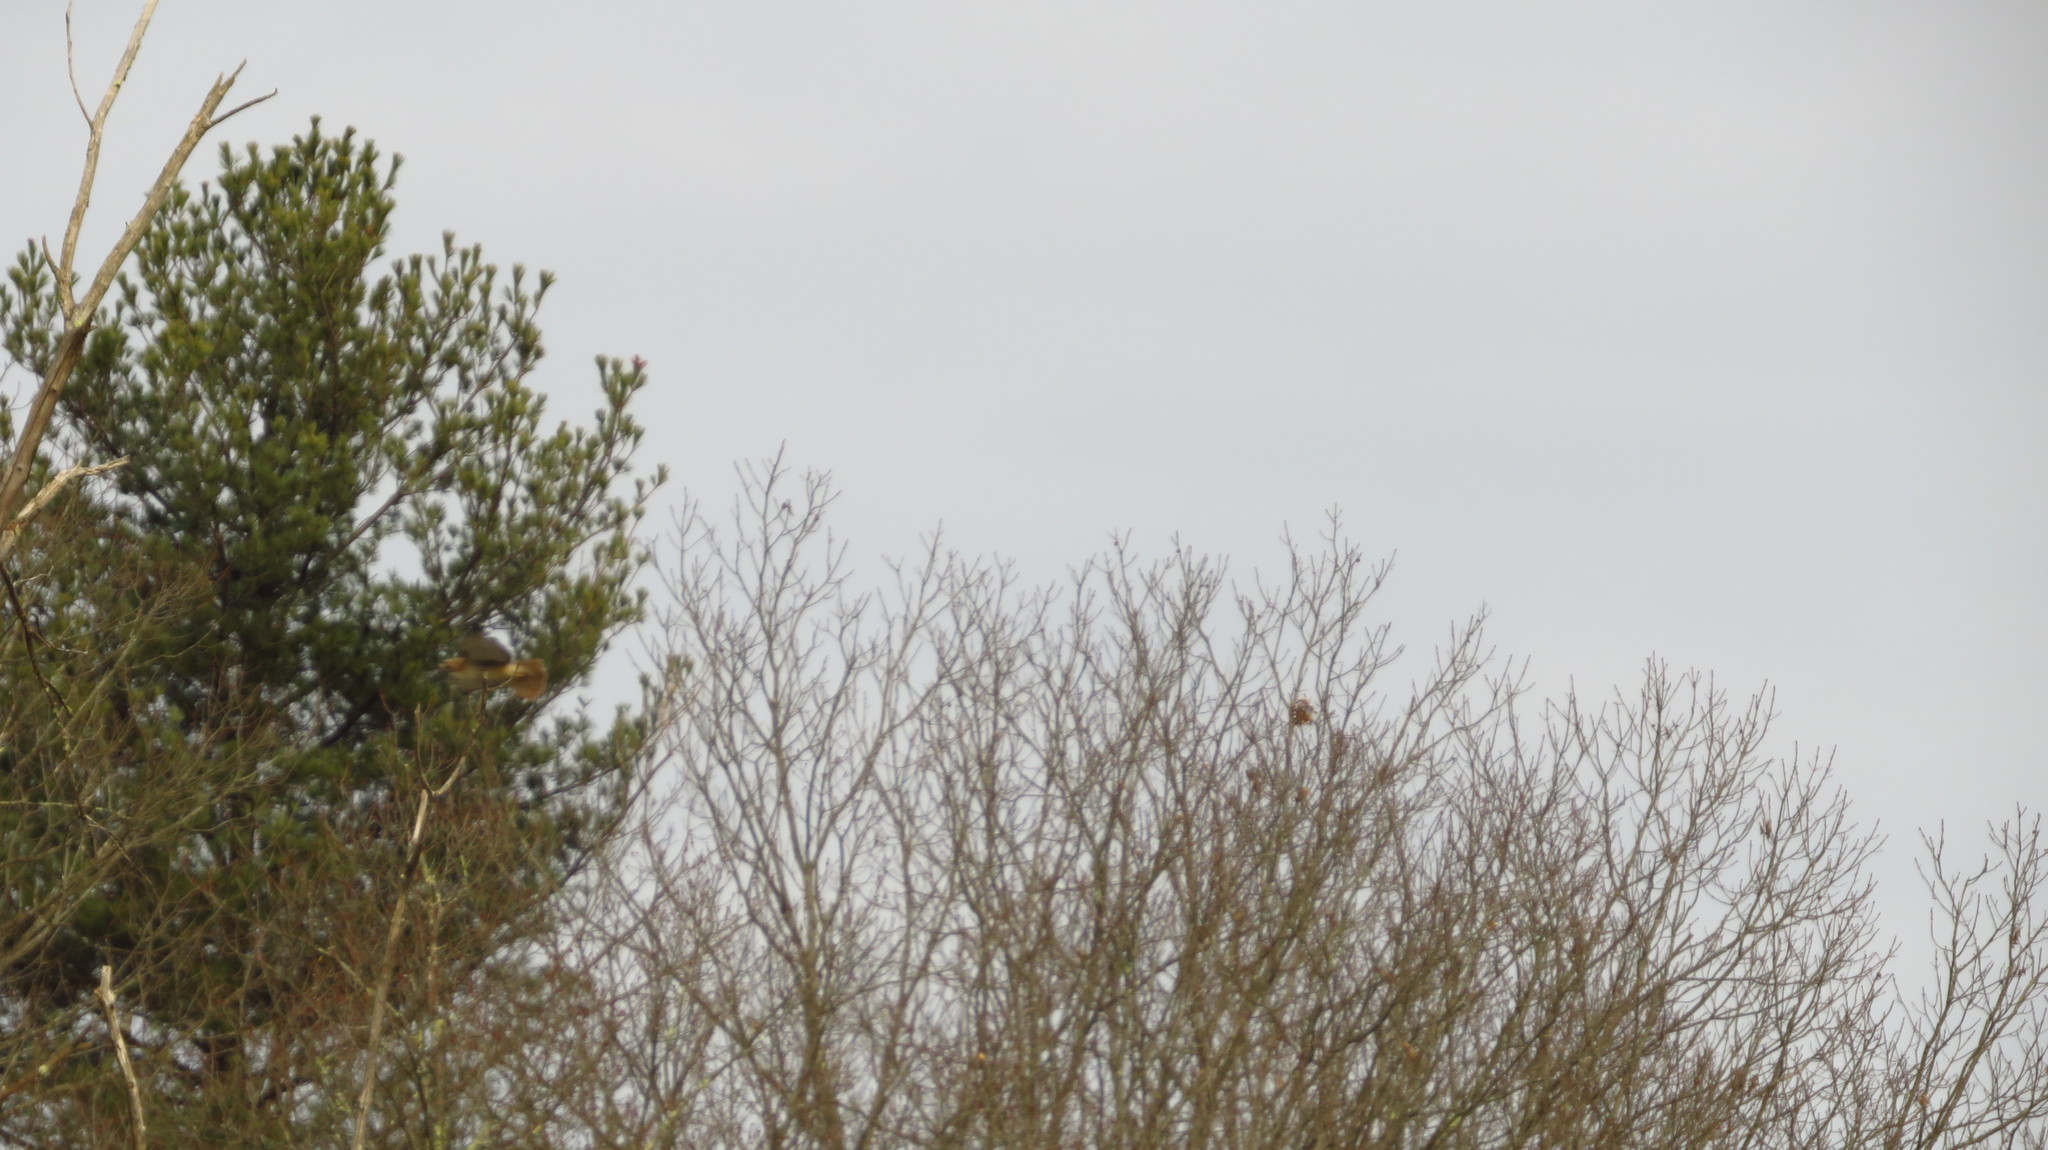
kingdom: Animalia
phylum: Chordata
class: Aves
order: Accipitriformes
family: Accipitridae
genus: Buteo
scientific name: Buteo jamaicensis
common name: Red-tailed hawk
